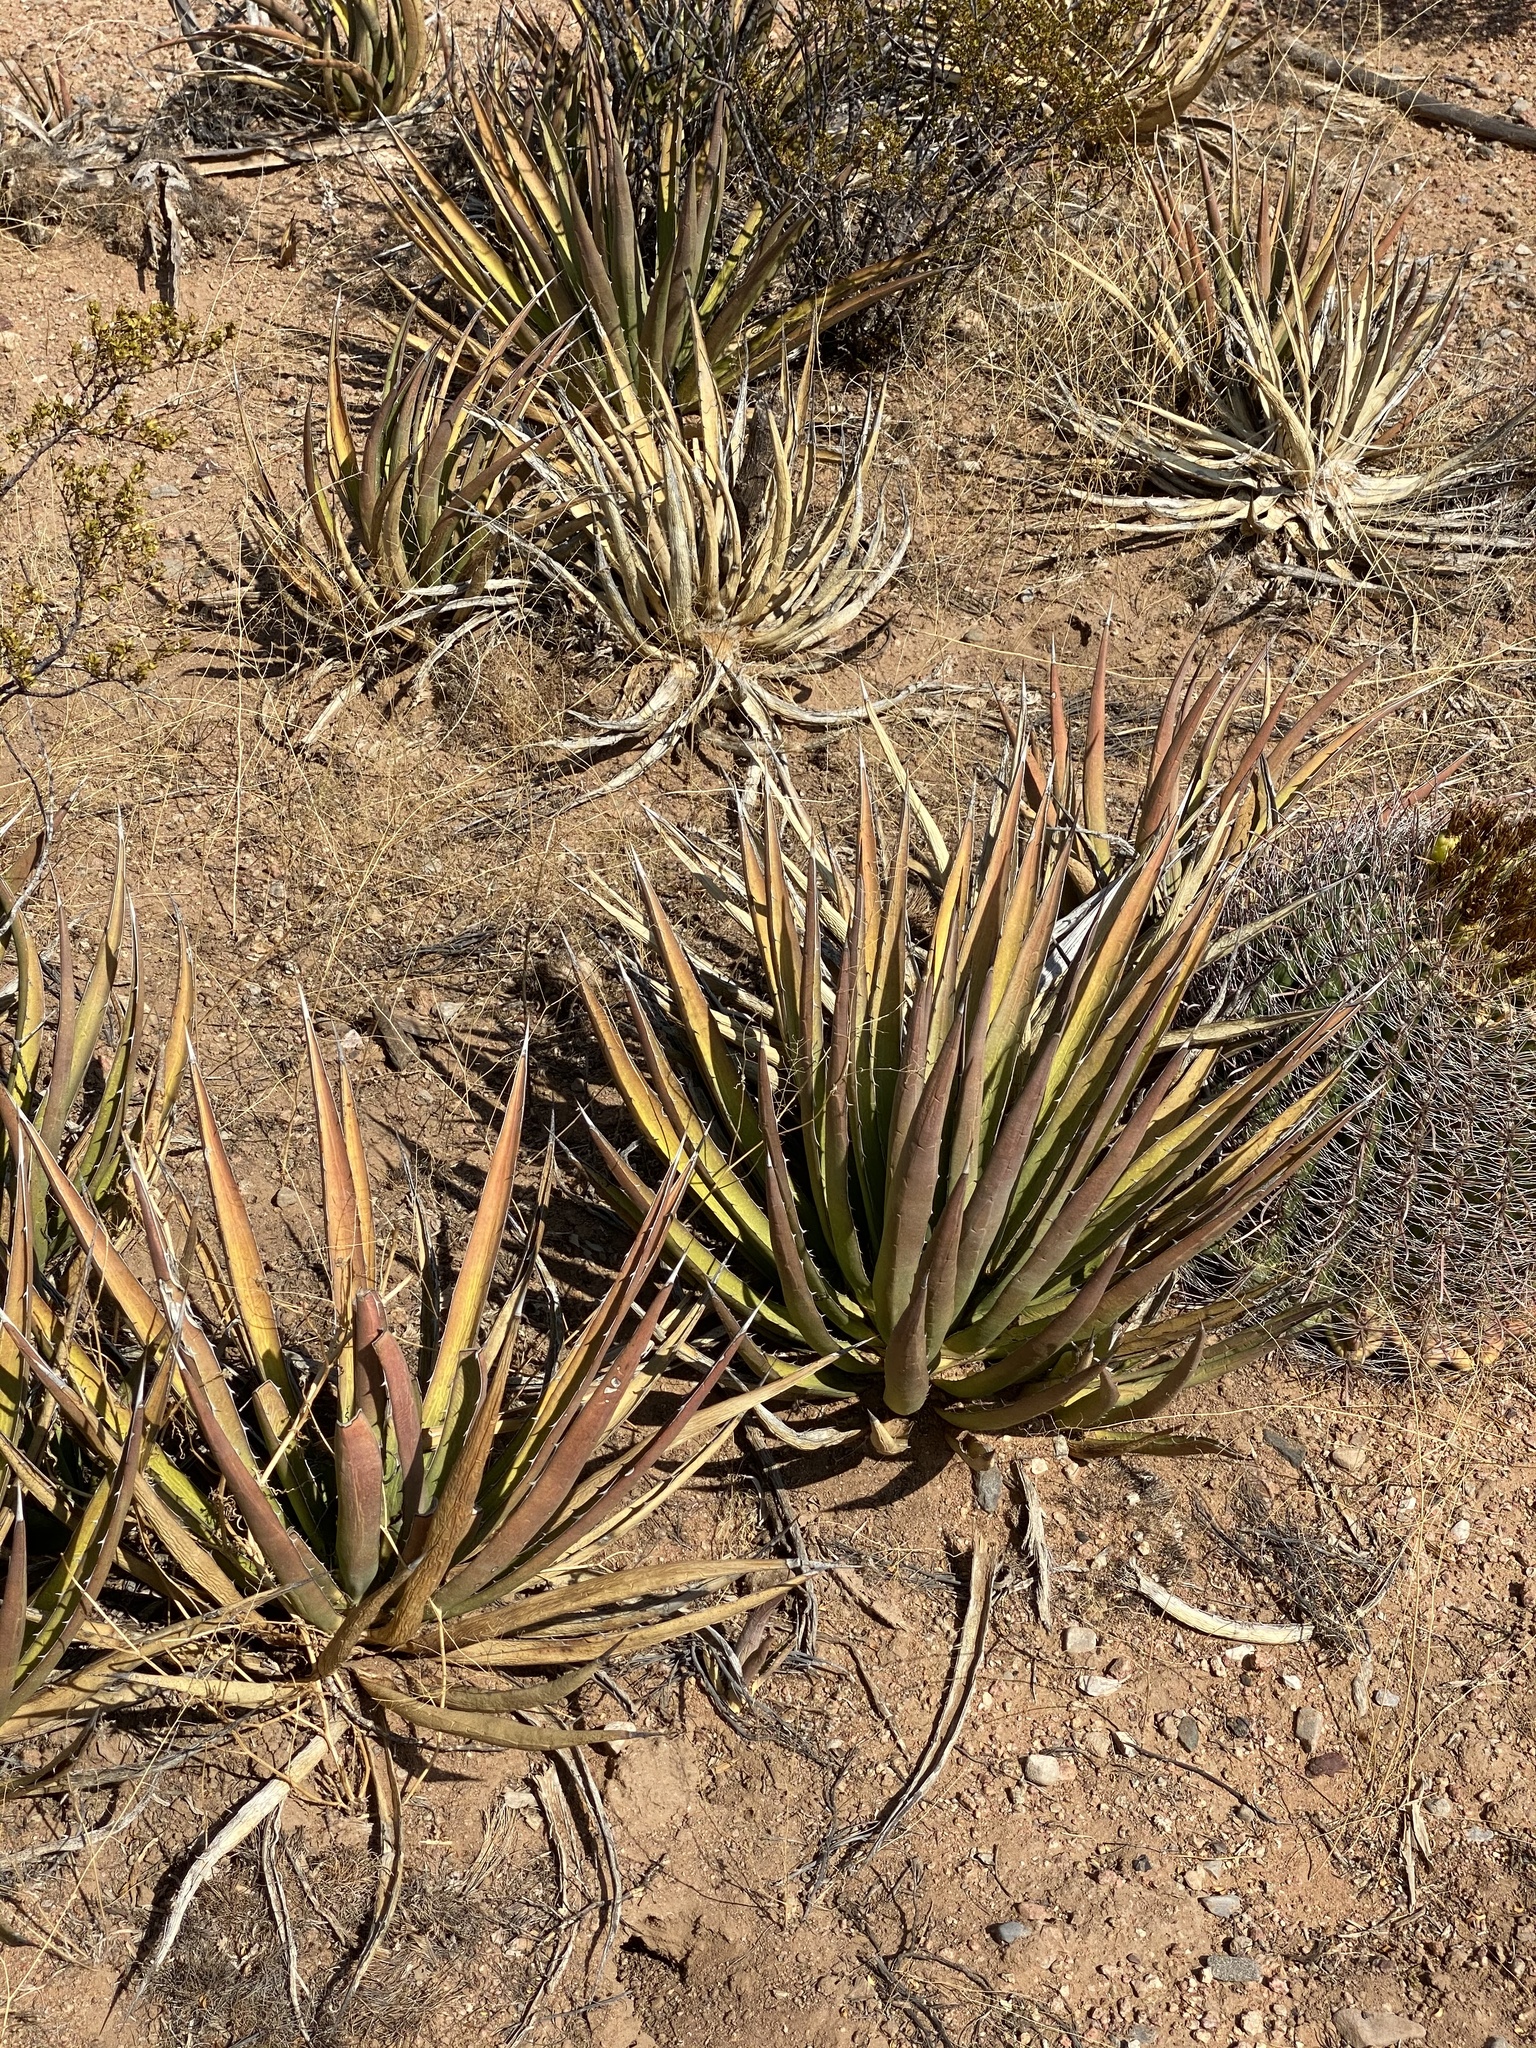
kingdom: Plantae
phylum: Tracheophyta
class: Liliopsida
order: Asparagales
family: Asparagaceae
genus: Agave
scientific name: Agave lechuguilla
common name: Lecheguilla agave
